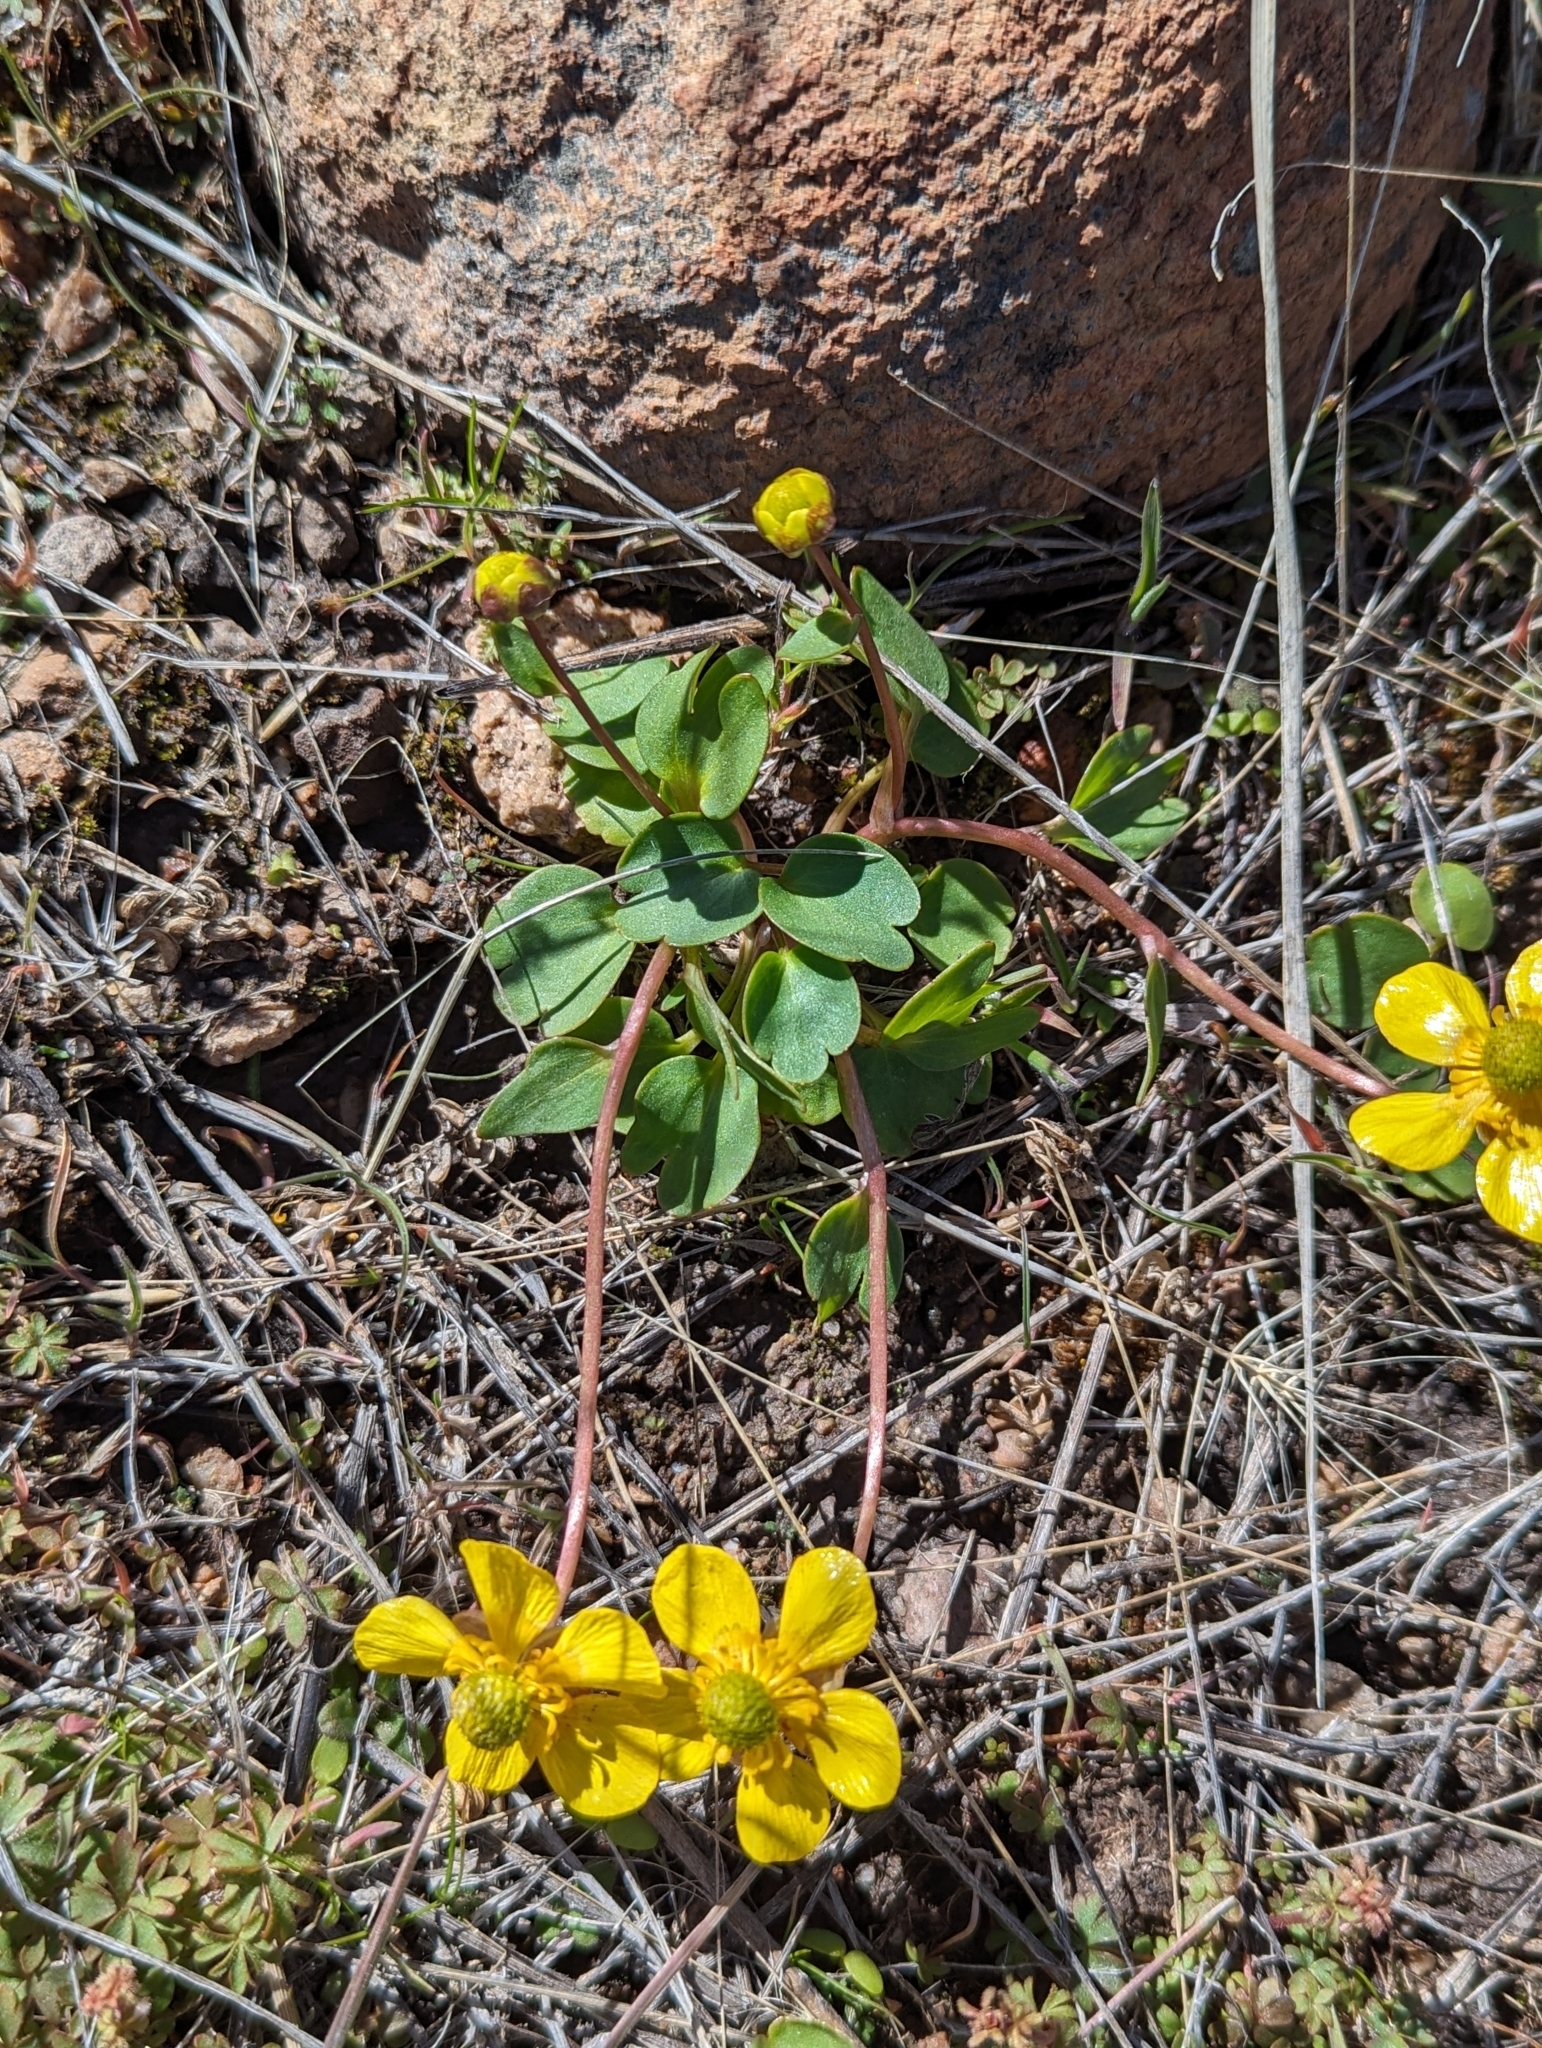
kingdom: Plantae
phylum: Tracheophyta
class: Magnoliopsida
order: Ranunculales
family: Ranunculaceae
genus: Ranunculus
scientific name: Ranunculus glaberrimus
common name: Sagebrush buttercup
